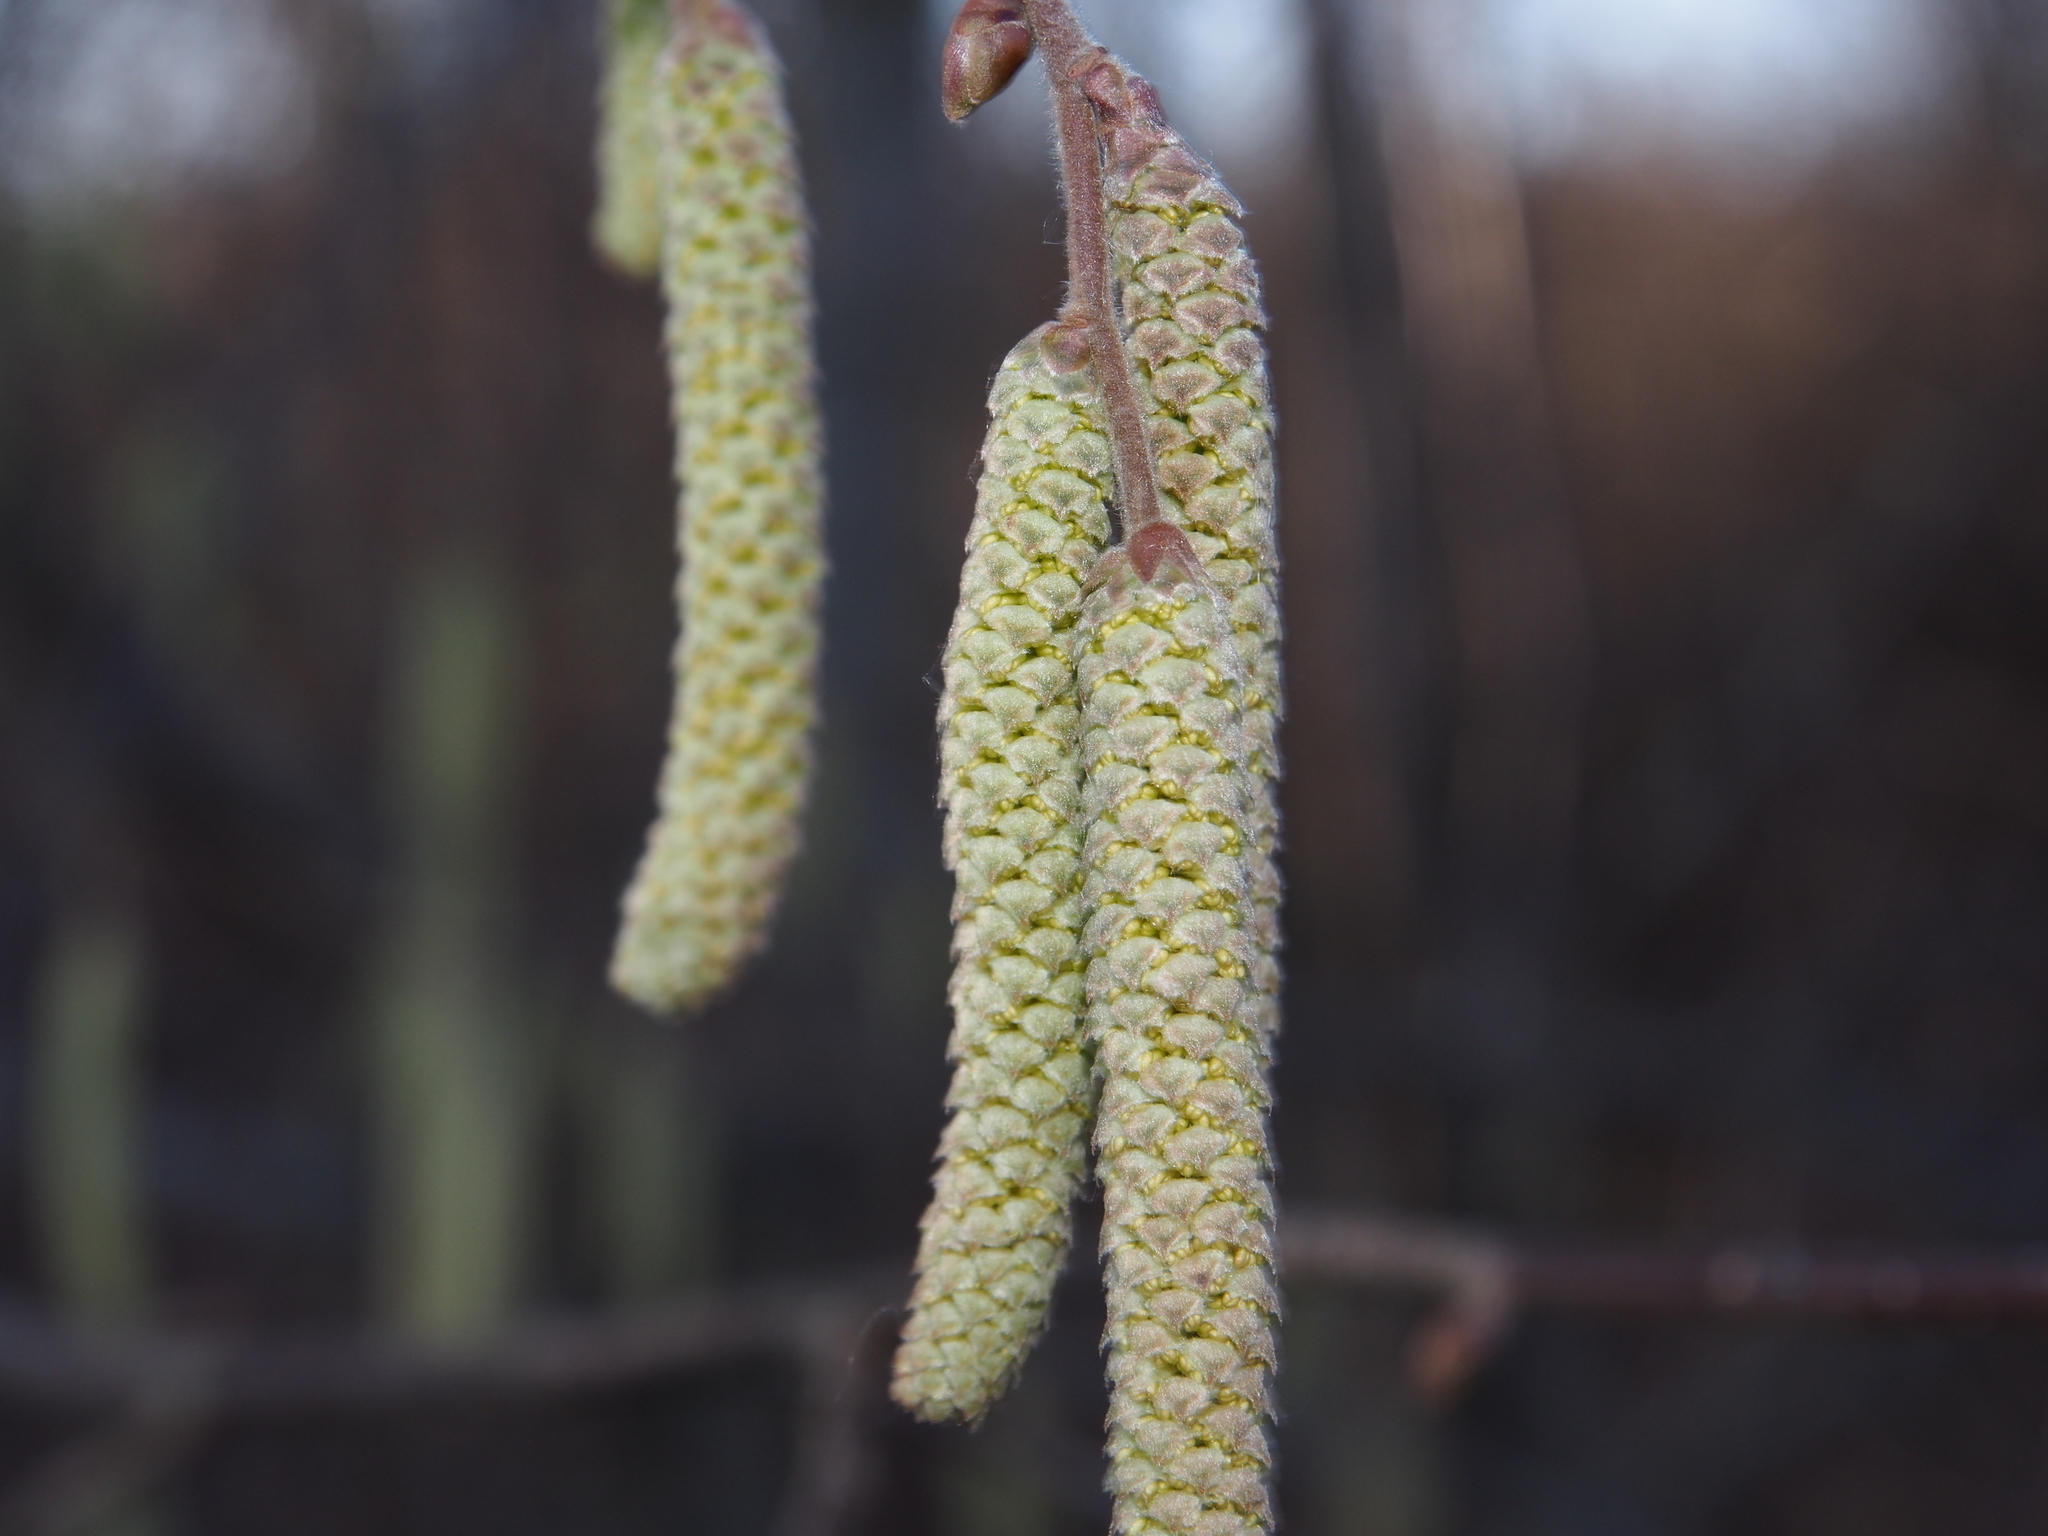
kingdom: Plantae
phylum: Tracheophyta
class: Magnoliopsida
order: Fagales
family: Betulaceae
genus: Corylus
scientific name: Corylus avellana
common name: European hazel
